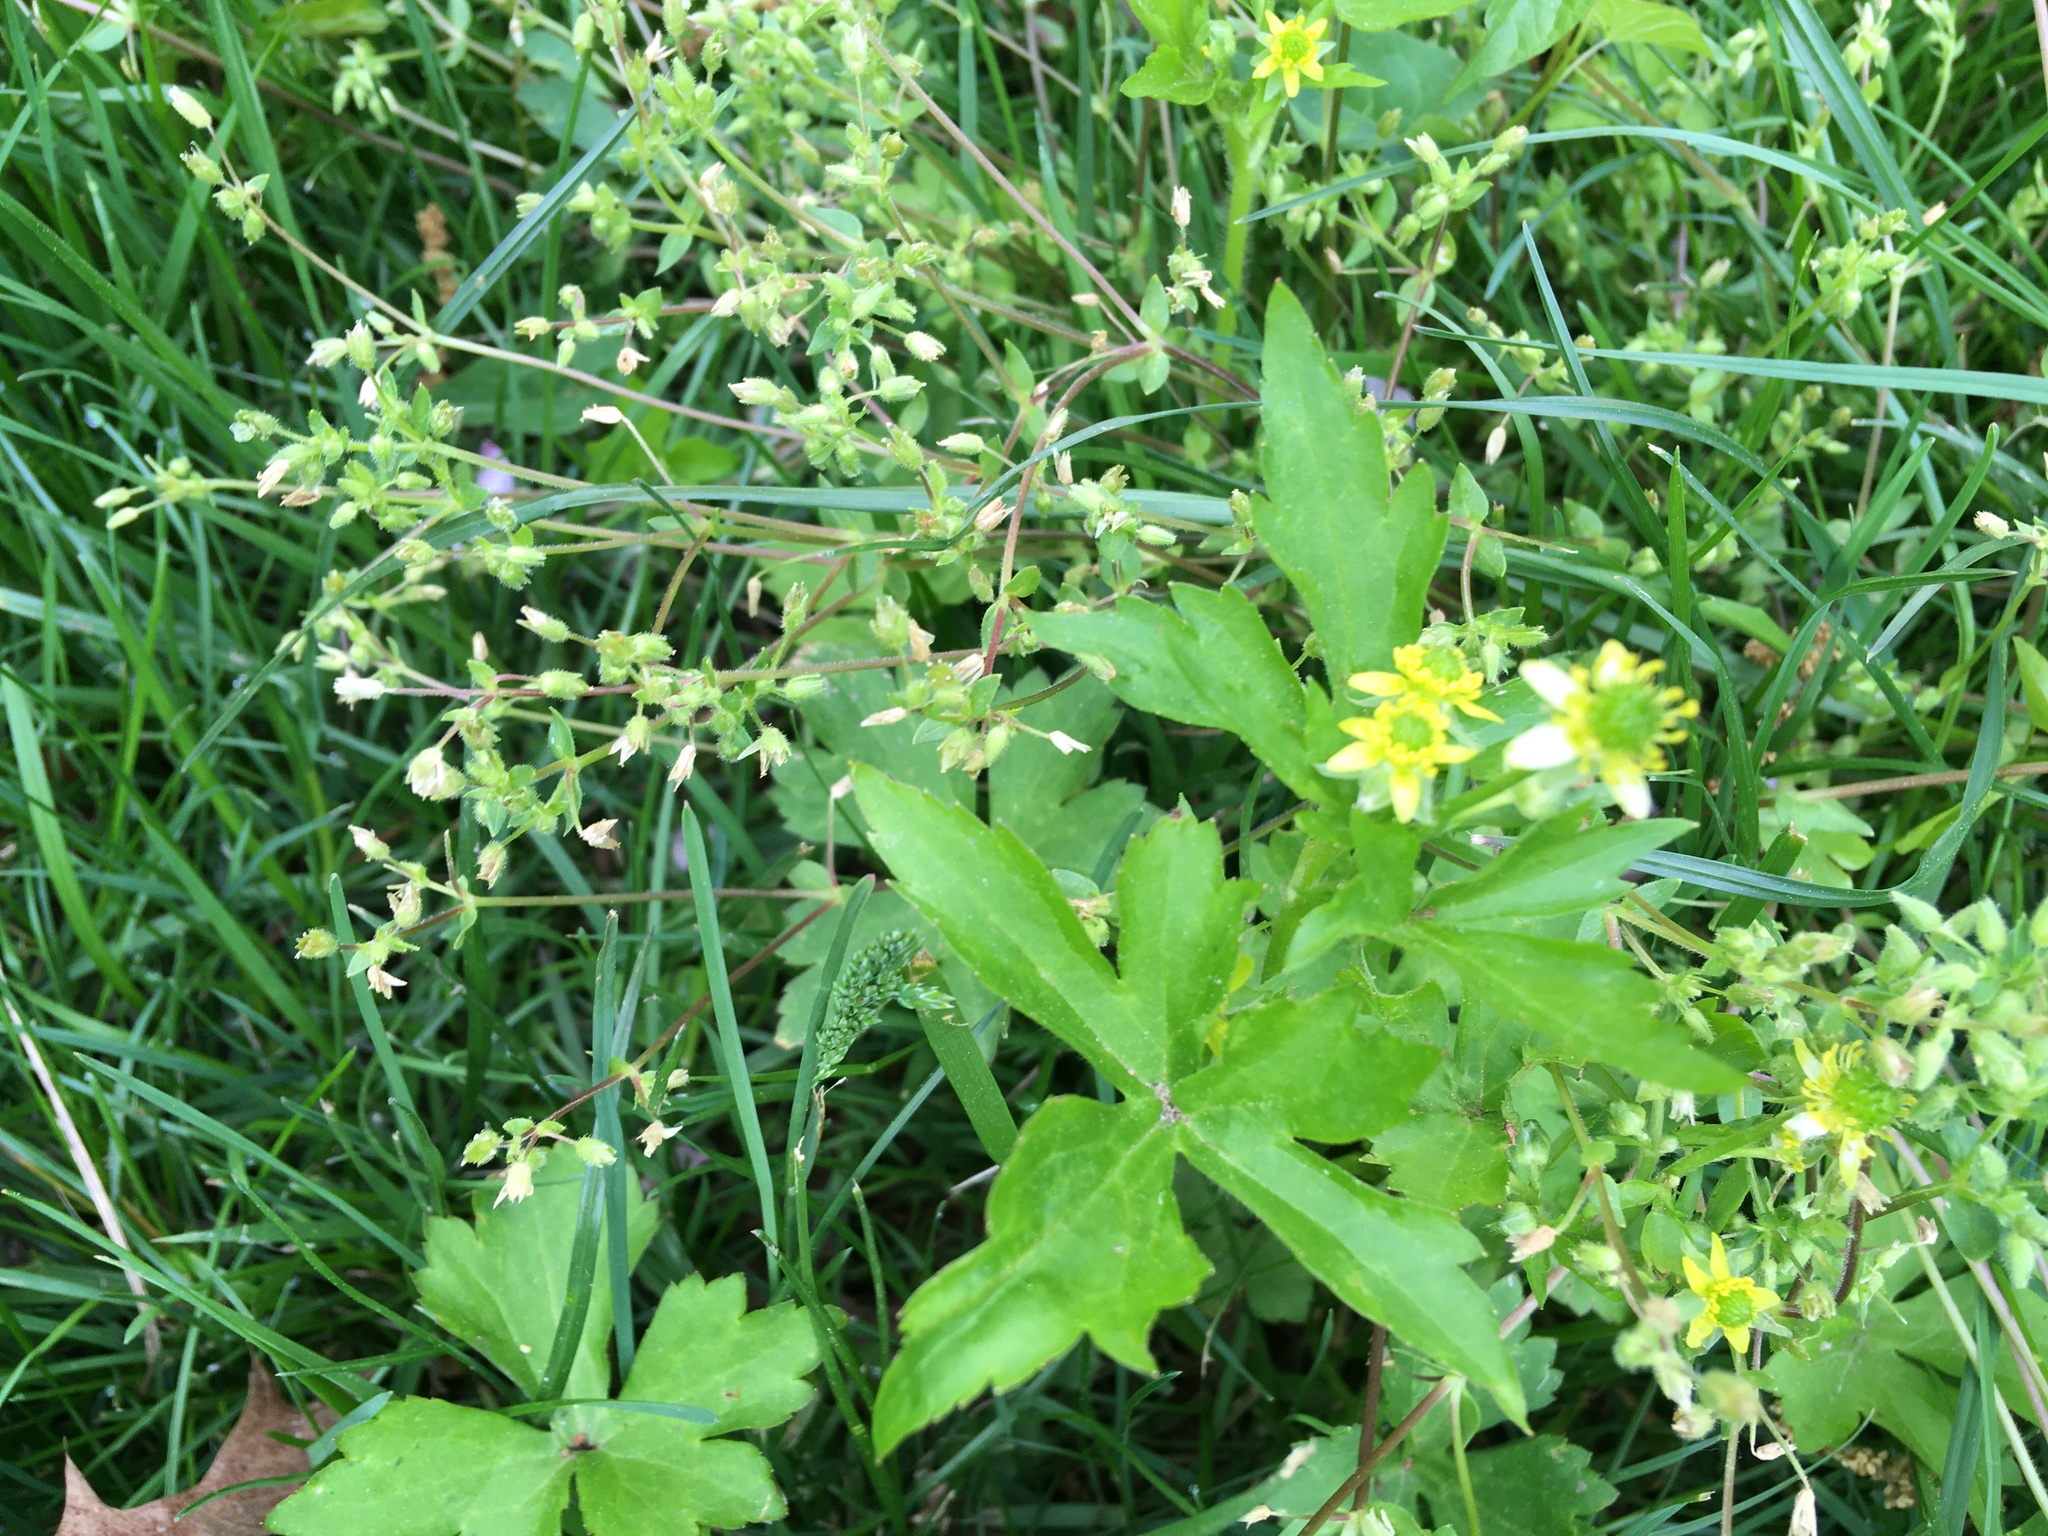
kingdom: Plantae
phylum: Tracheophyta
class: Magnoliopsida
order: Ranunculales
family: Ranunculaceae
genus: Ranunculus
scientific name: Ranunculus recurvatus
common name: Blisterwort
